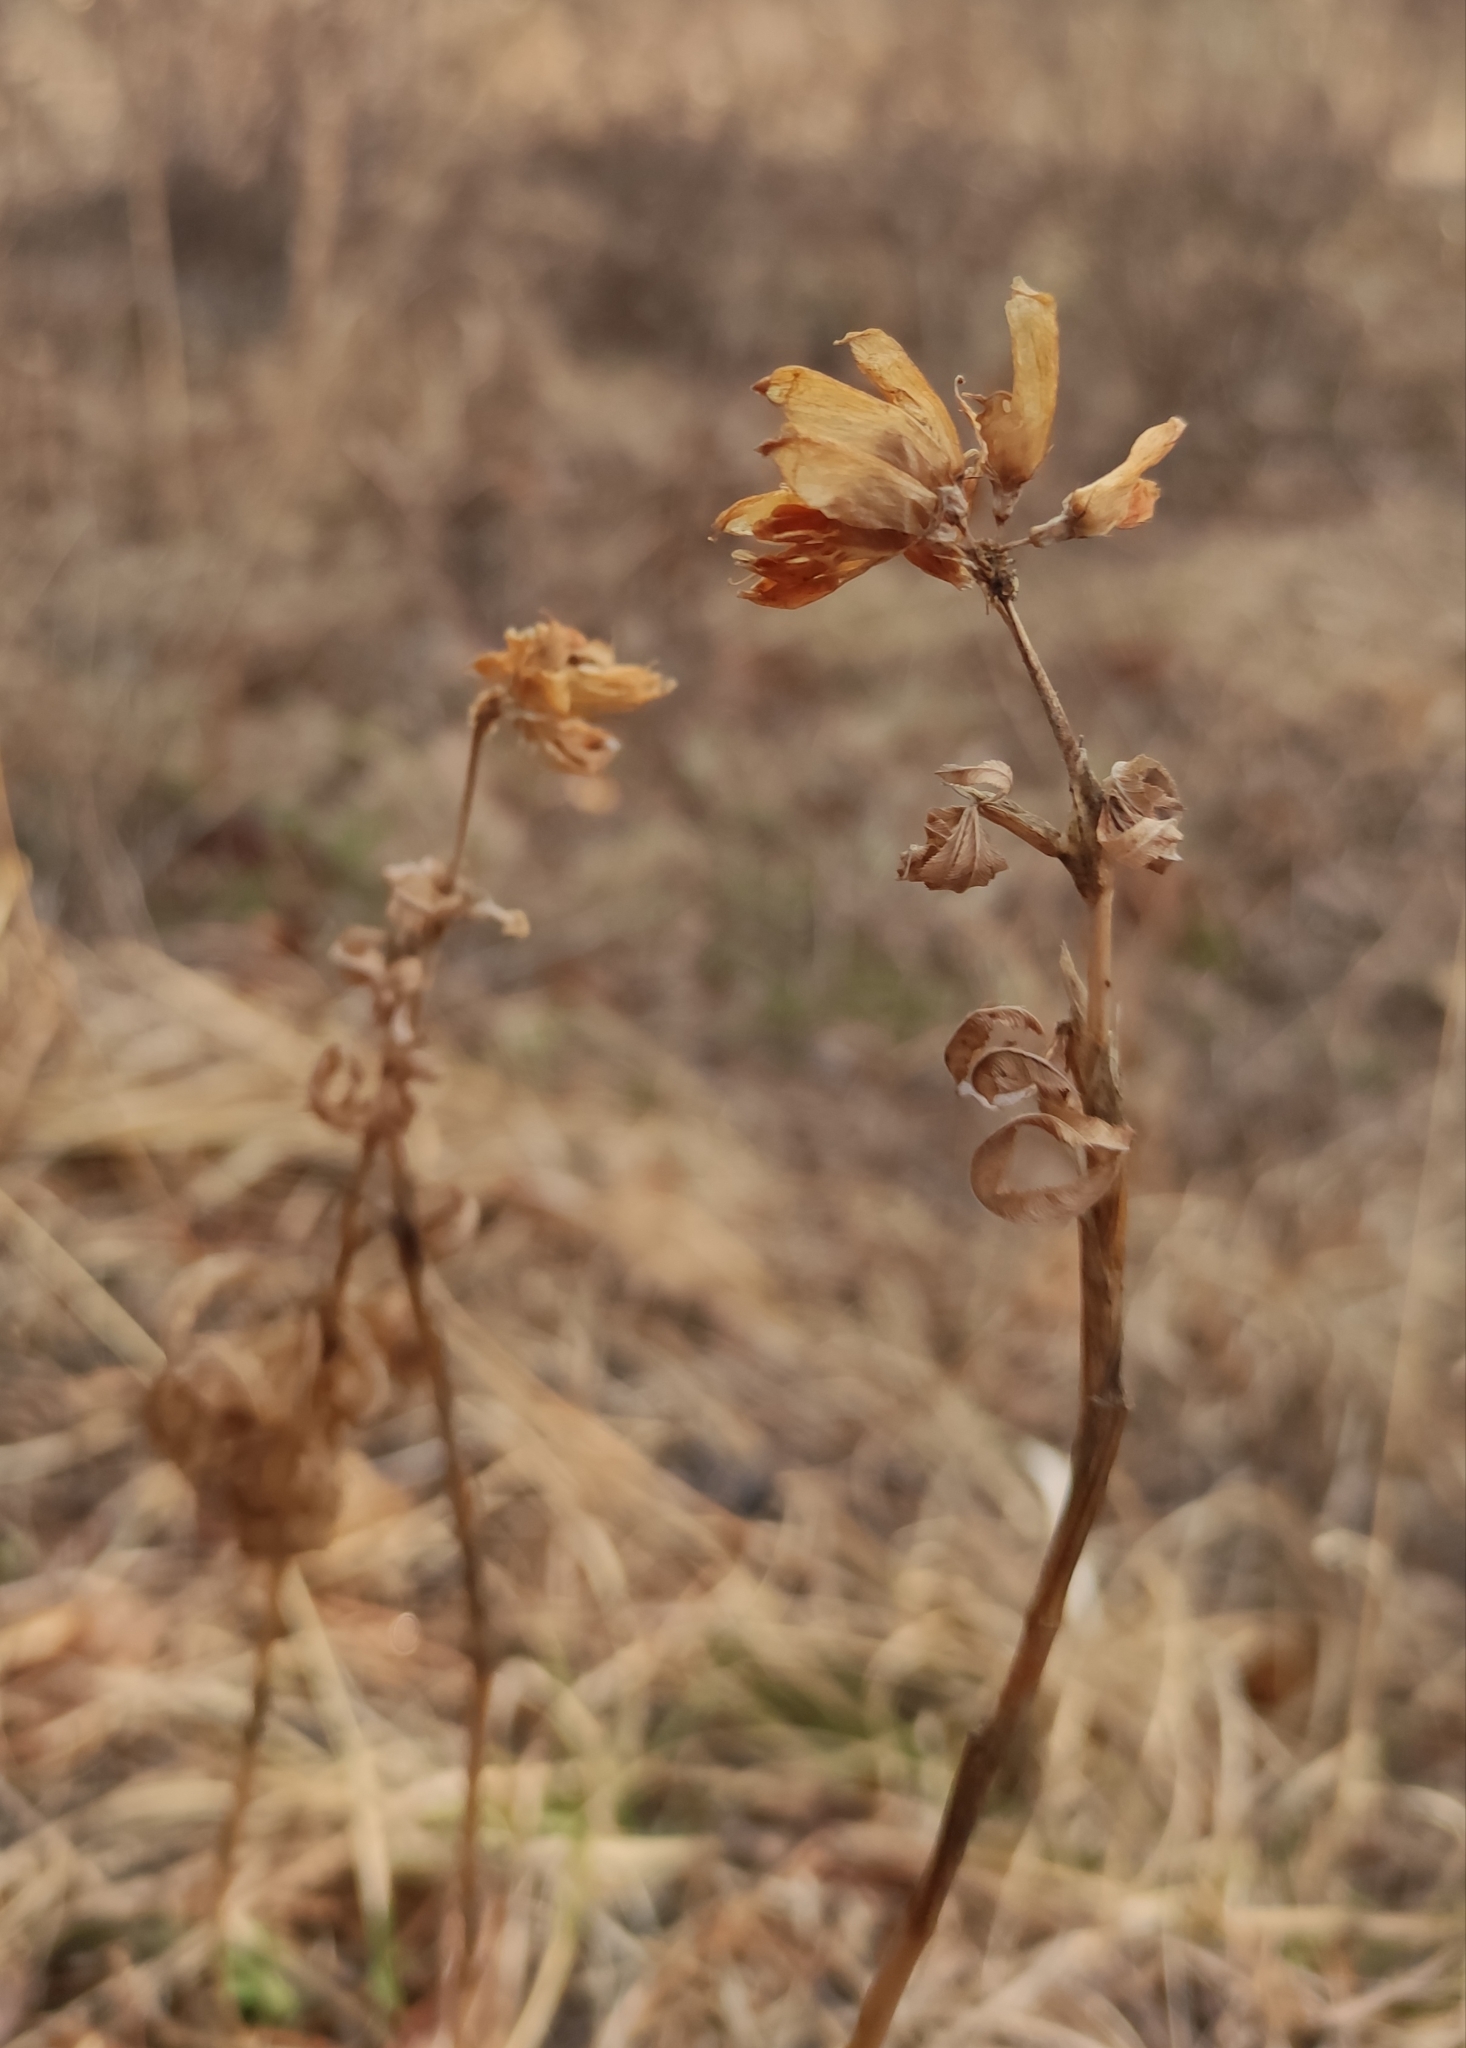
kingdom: Plantae
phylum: Tracheophyta
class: Magnoliopsida
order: Fabales
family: Fabaceae
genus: Trifolium
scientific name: Trifolium lupinaster
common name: Lupine clover
